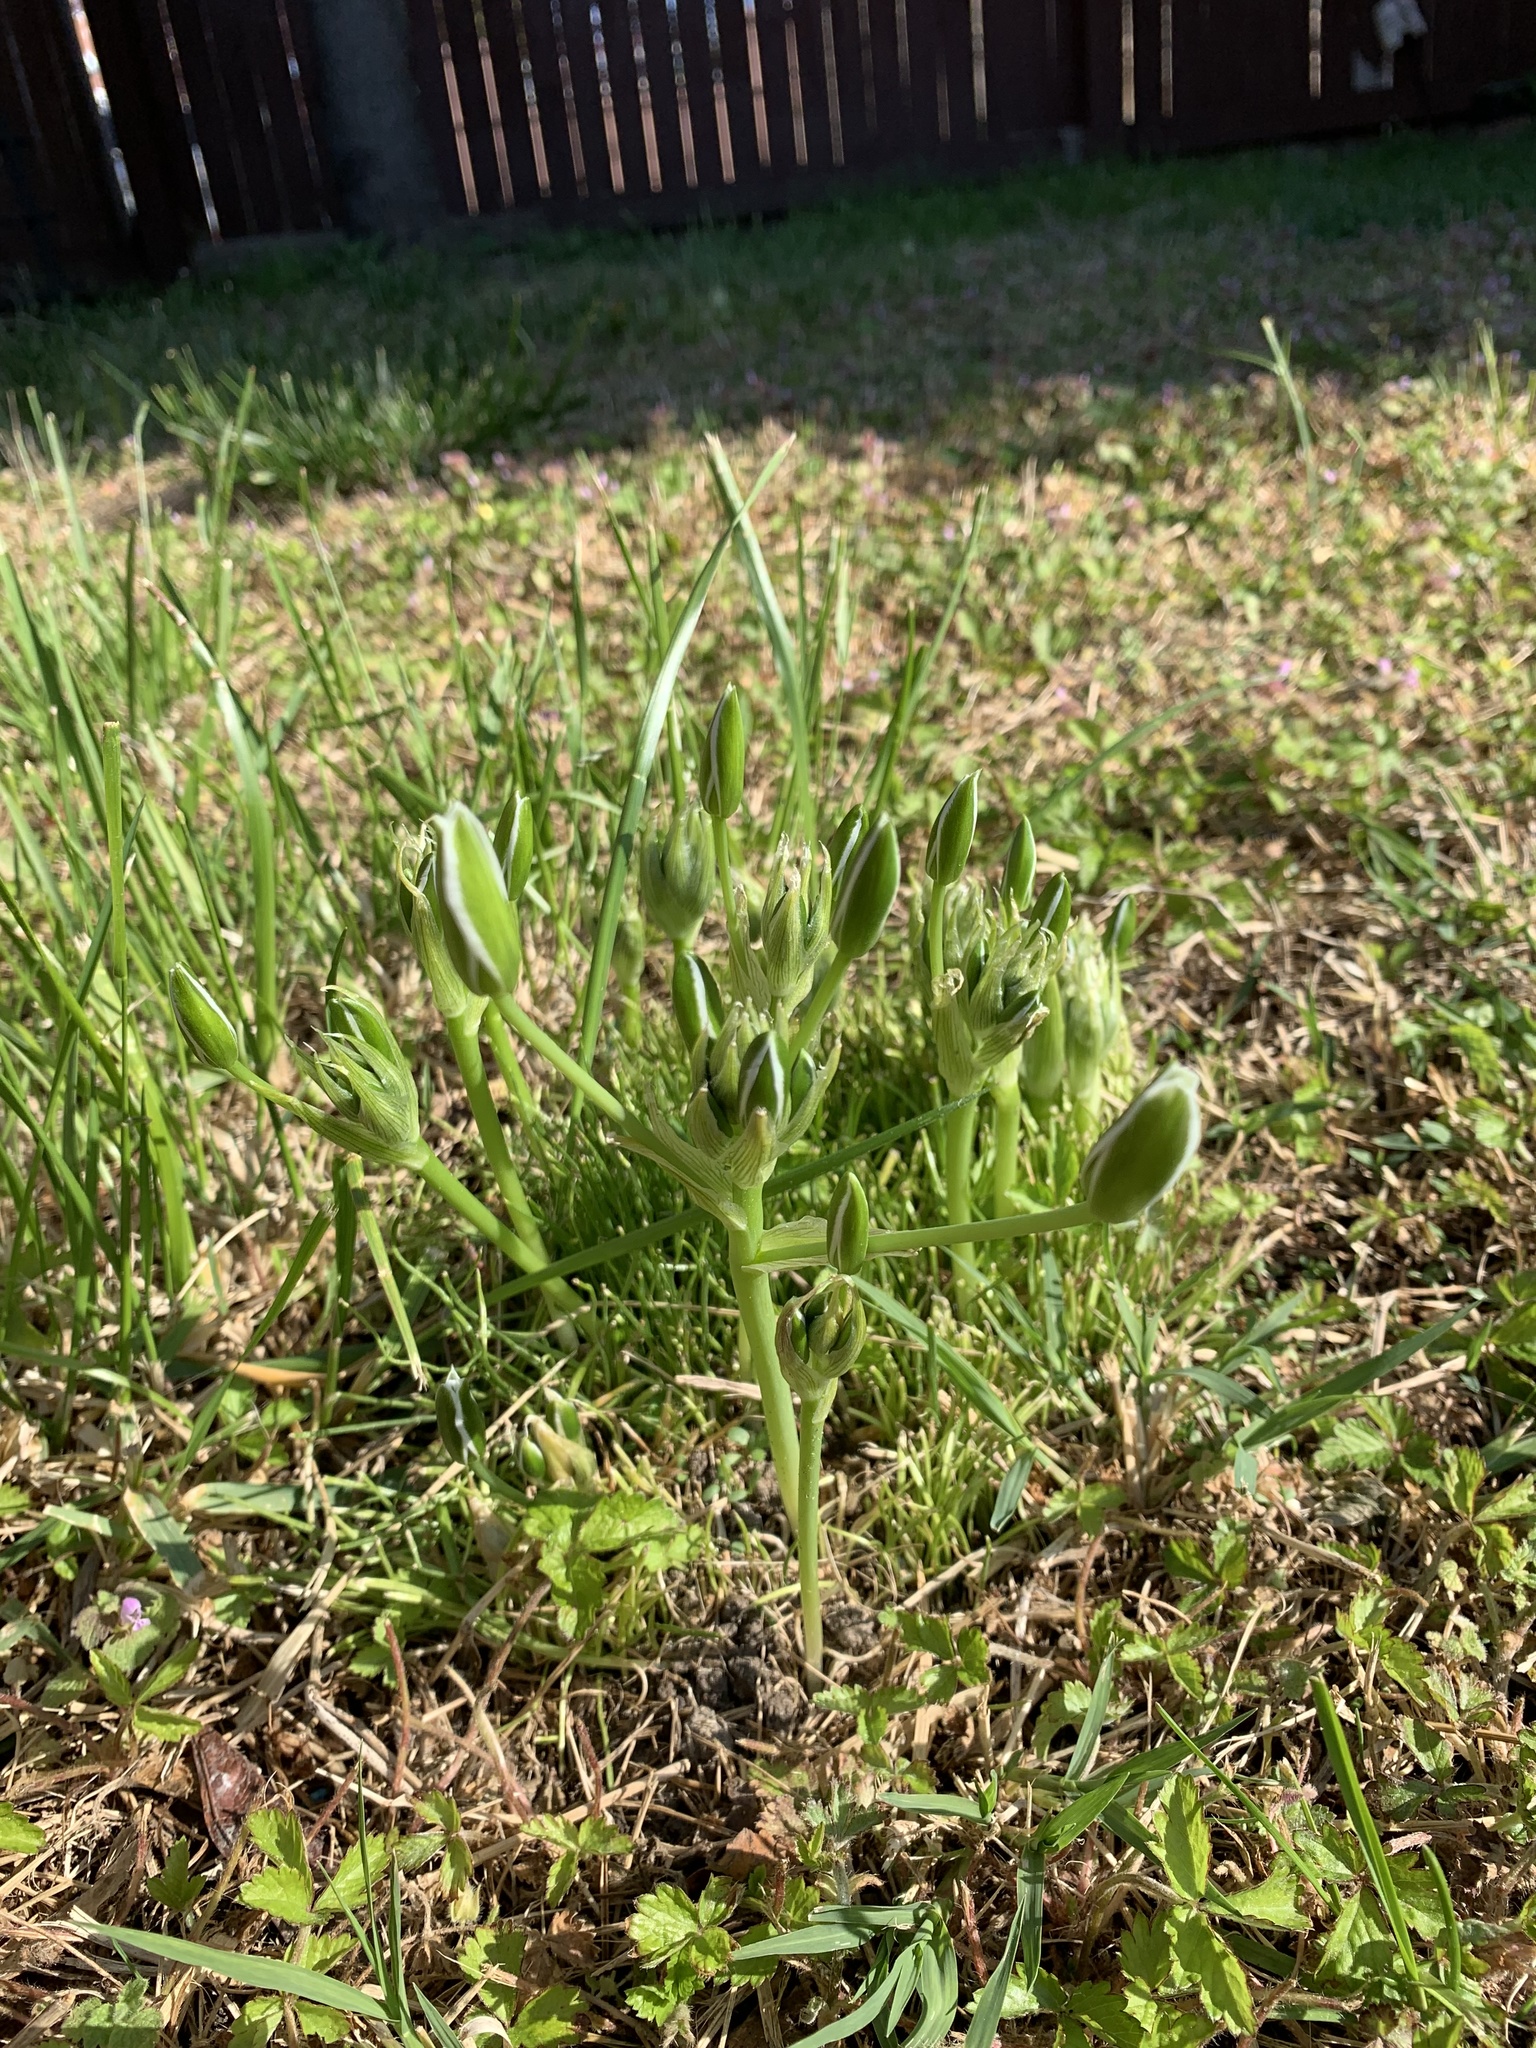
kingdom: Plantae
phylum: Tracheophyta
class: Liliopsida
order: Asparagales
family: Asparagaceae
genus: Ornithogalum
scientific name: Ornithogalum umbellatum
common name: Garden star-of-bethlehem
